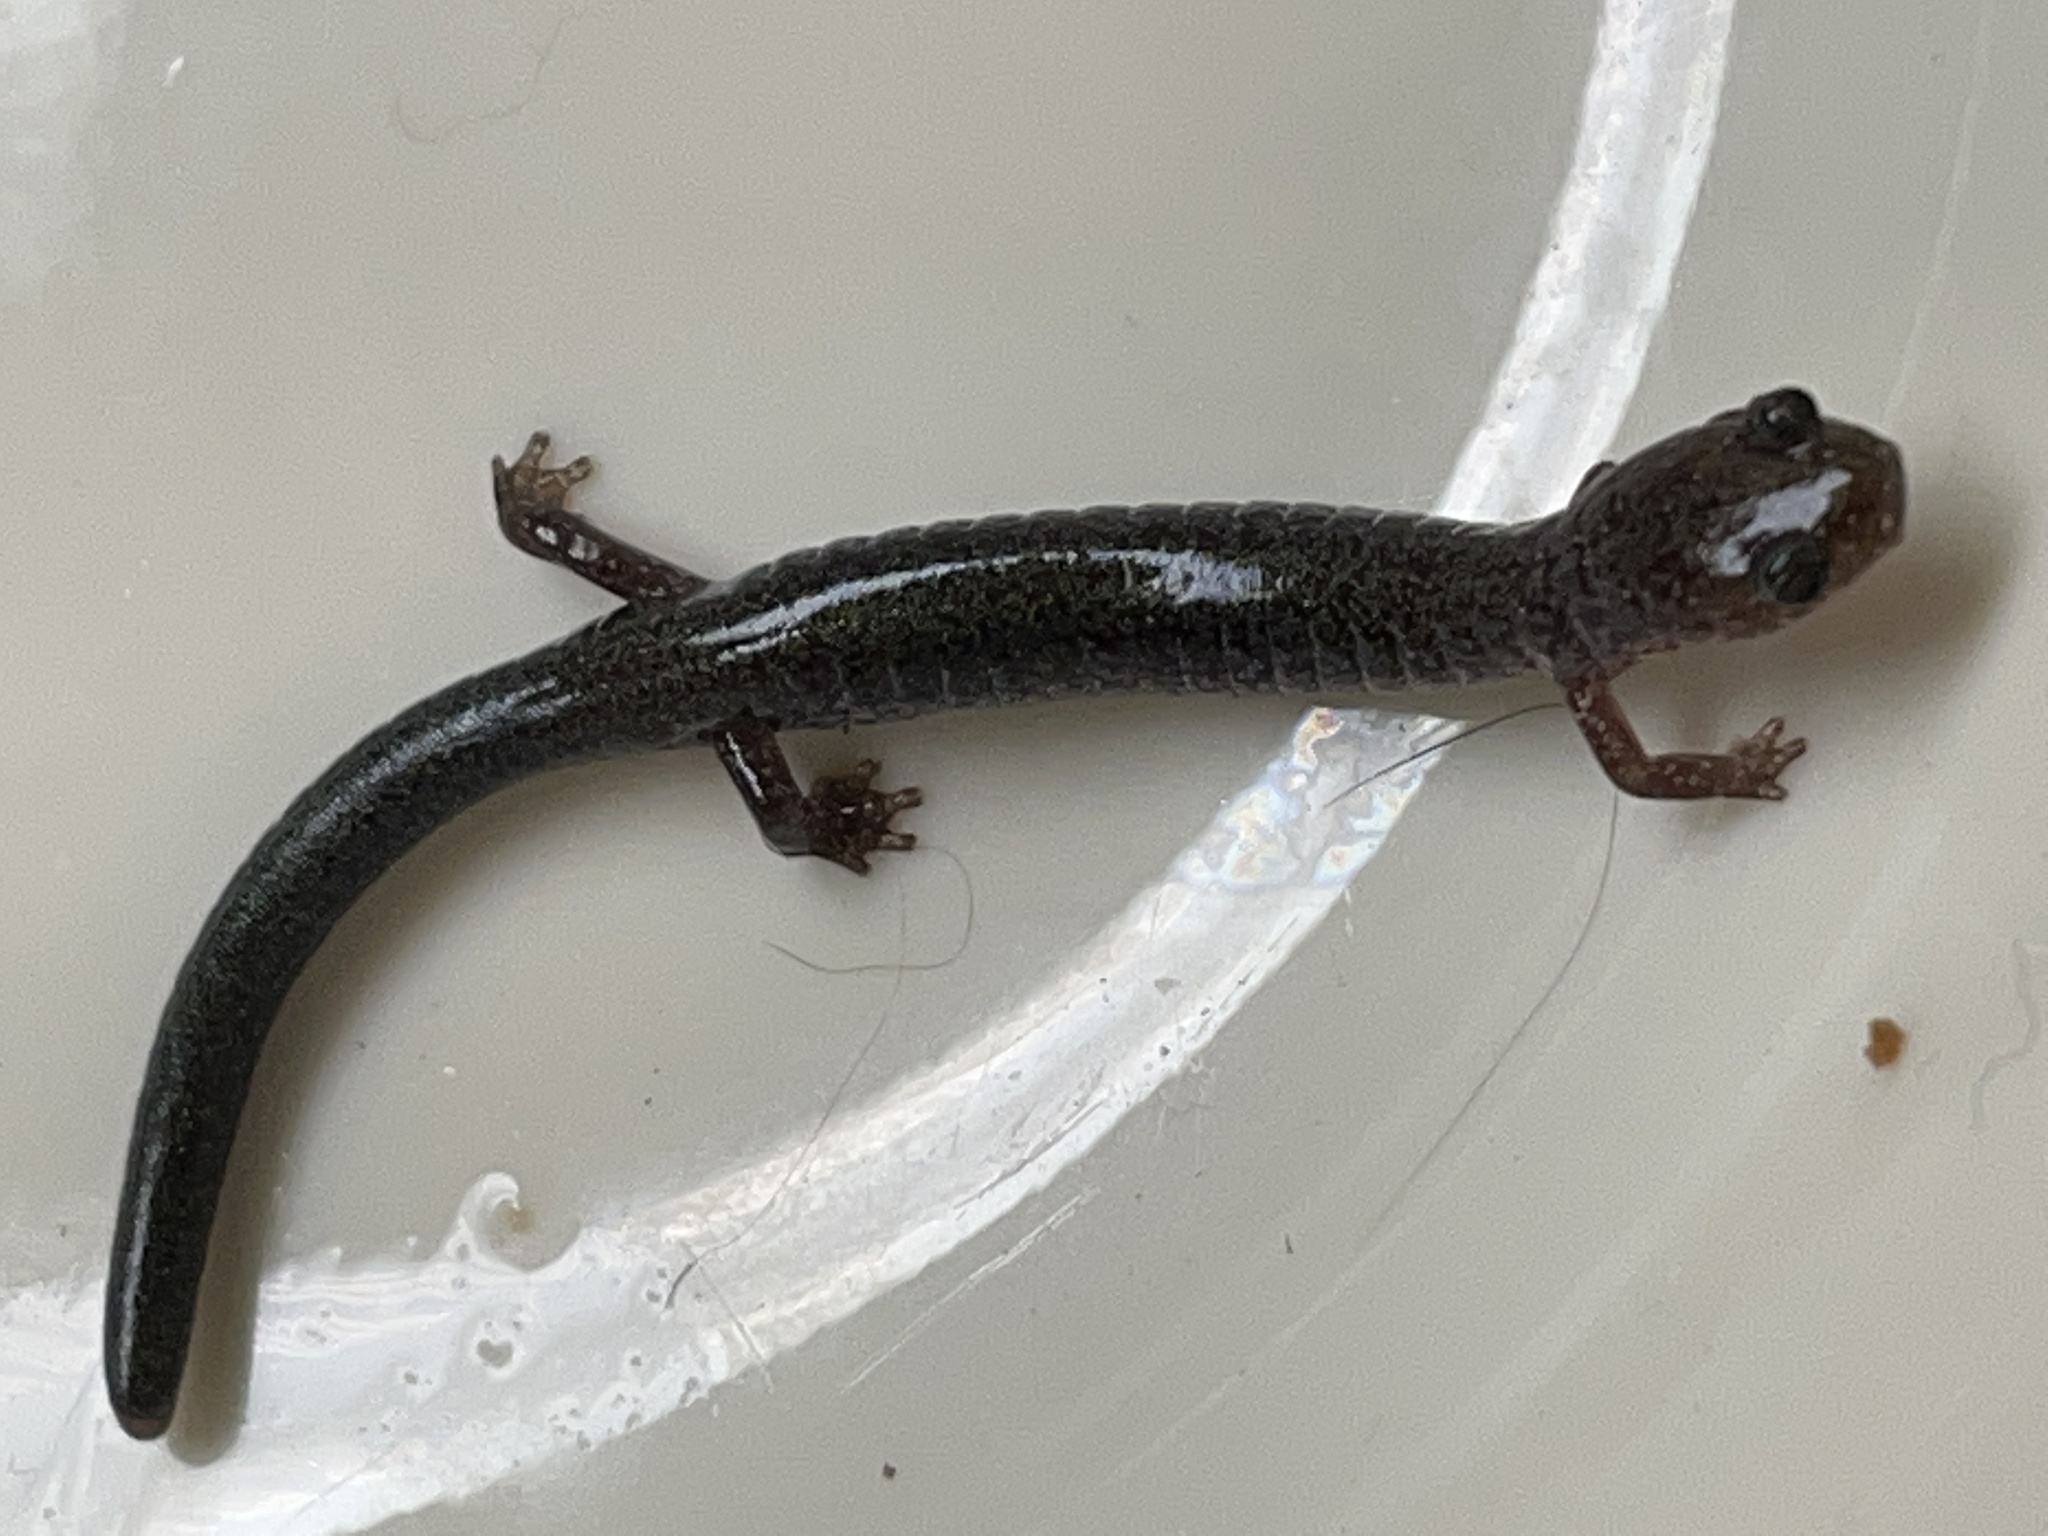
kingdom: Animalia
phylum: Chordata
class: Amphibia
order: Caudata
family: Plethodontidae
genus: Plethodon
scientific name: Plethodon cinereus
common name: Redback salamander
